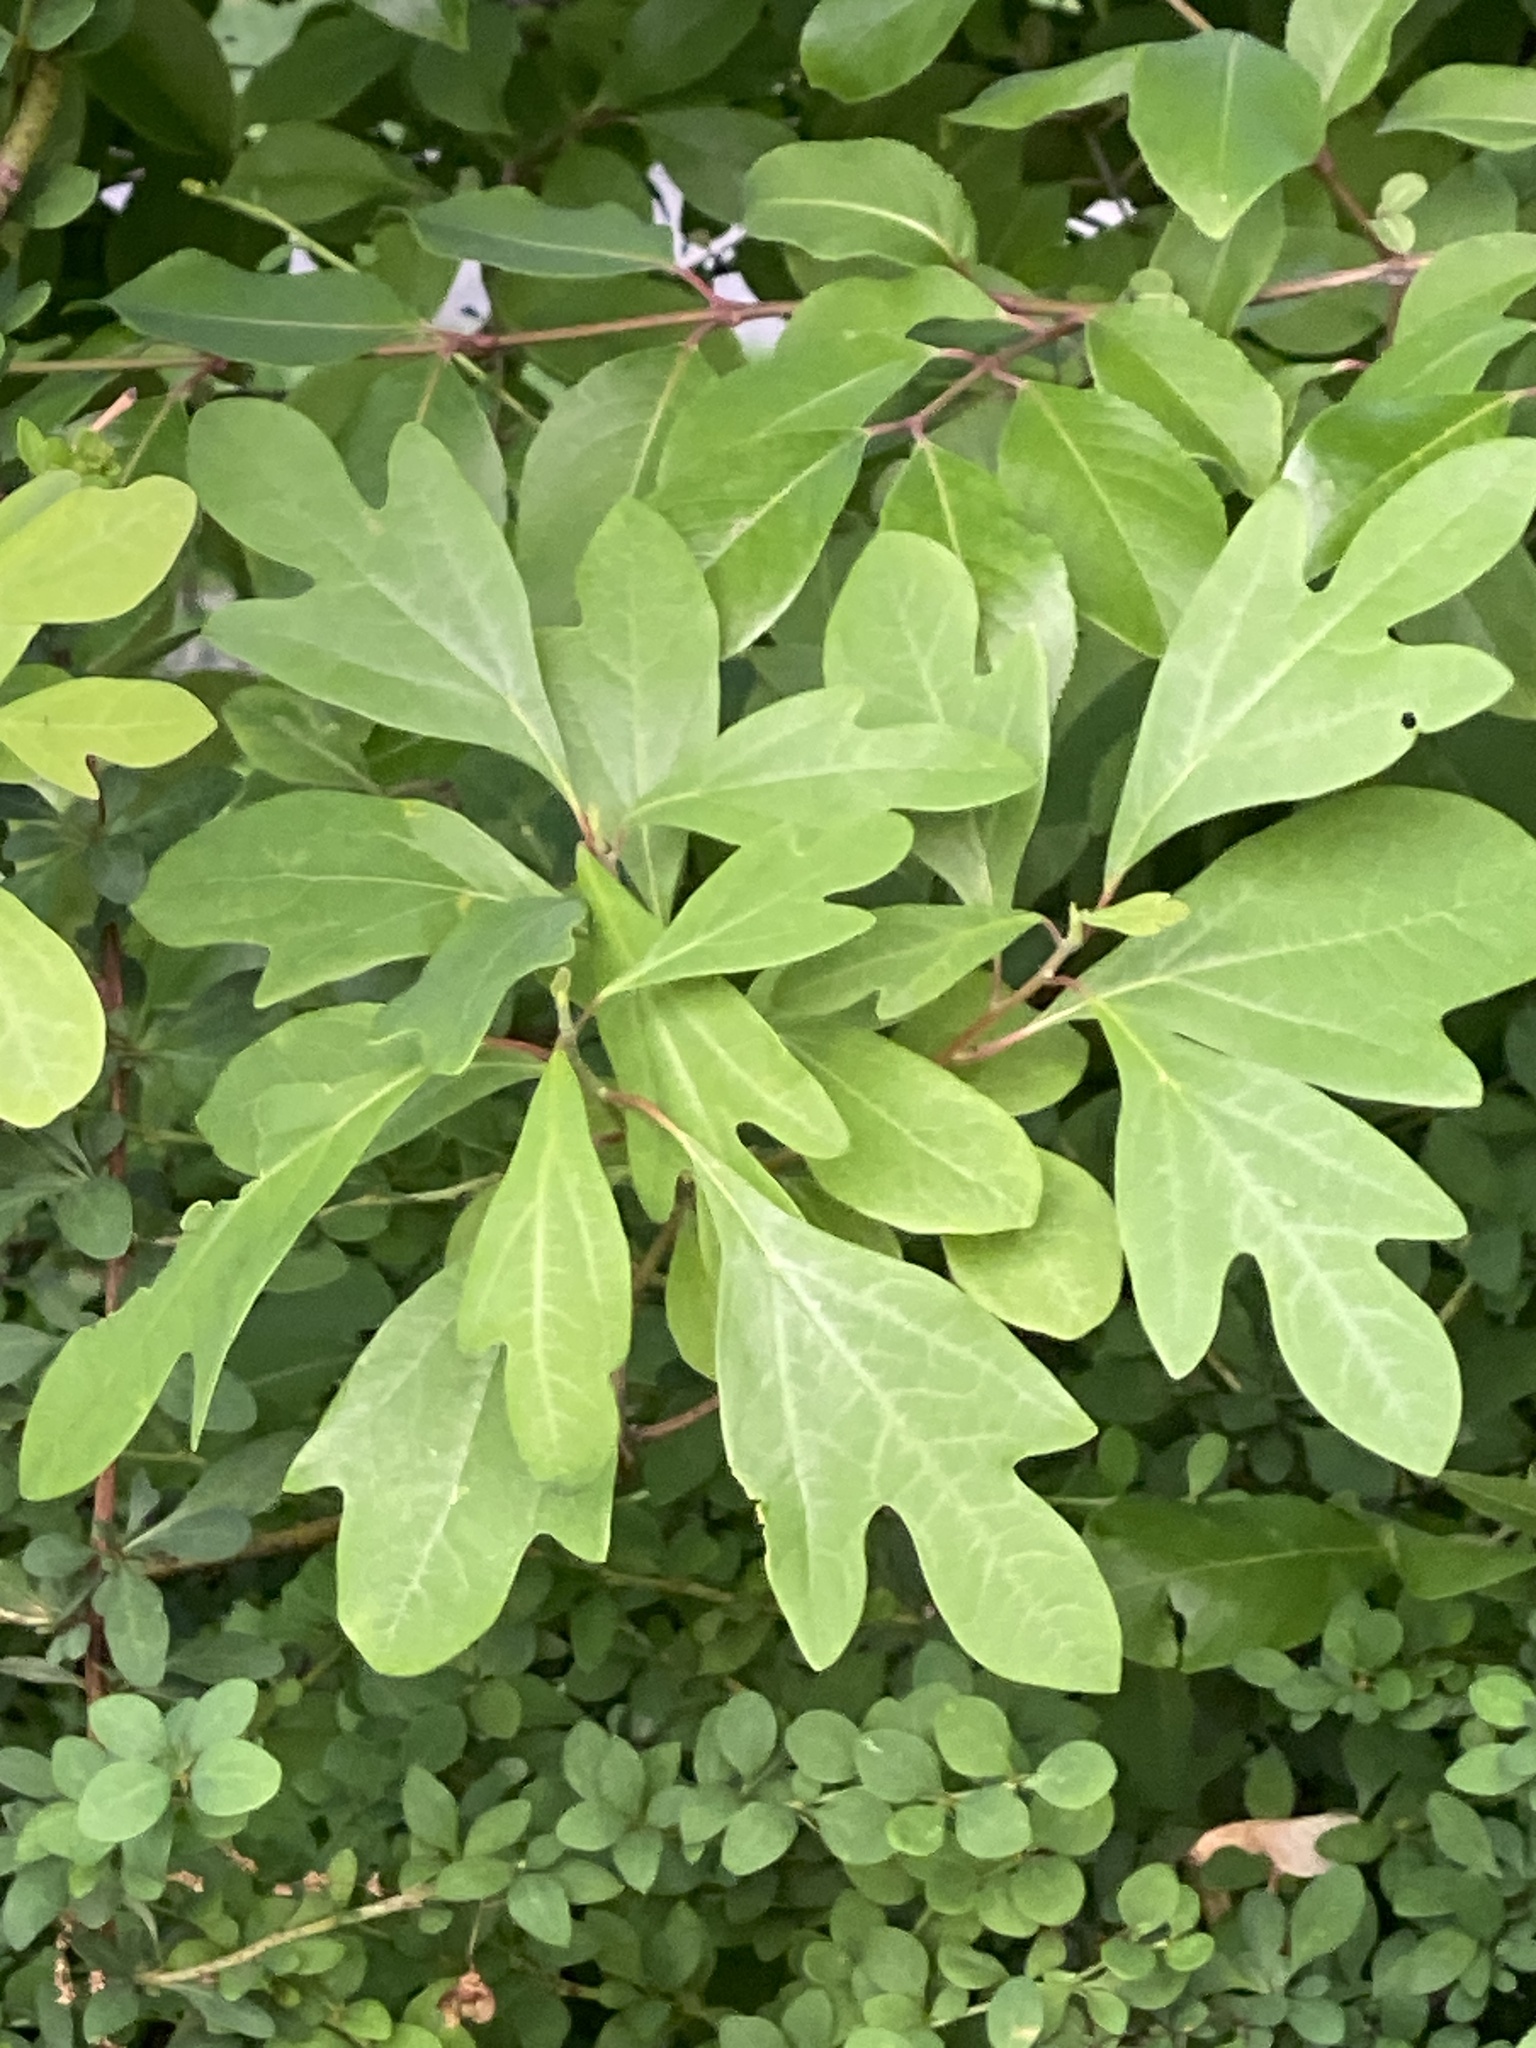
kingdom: Plantae
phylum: Tracheophyta
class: Magnoliopsida
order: Laurales
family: Lauraceae
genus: Sassafras
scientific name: Sassafras albidum
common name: Sassafras
